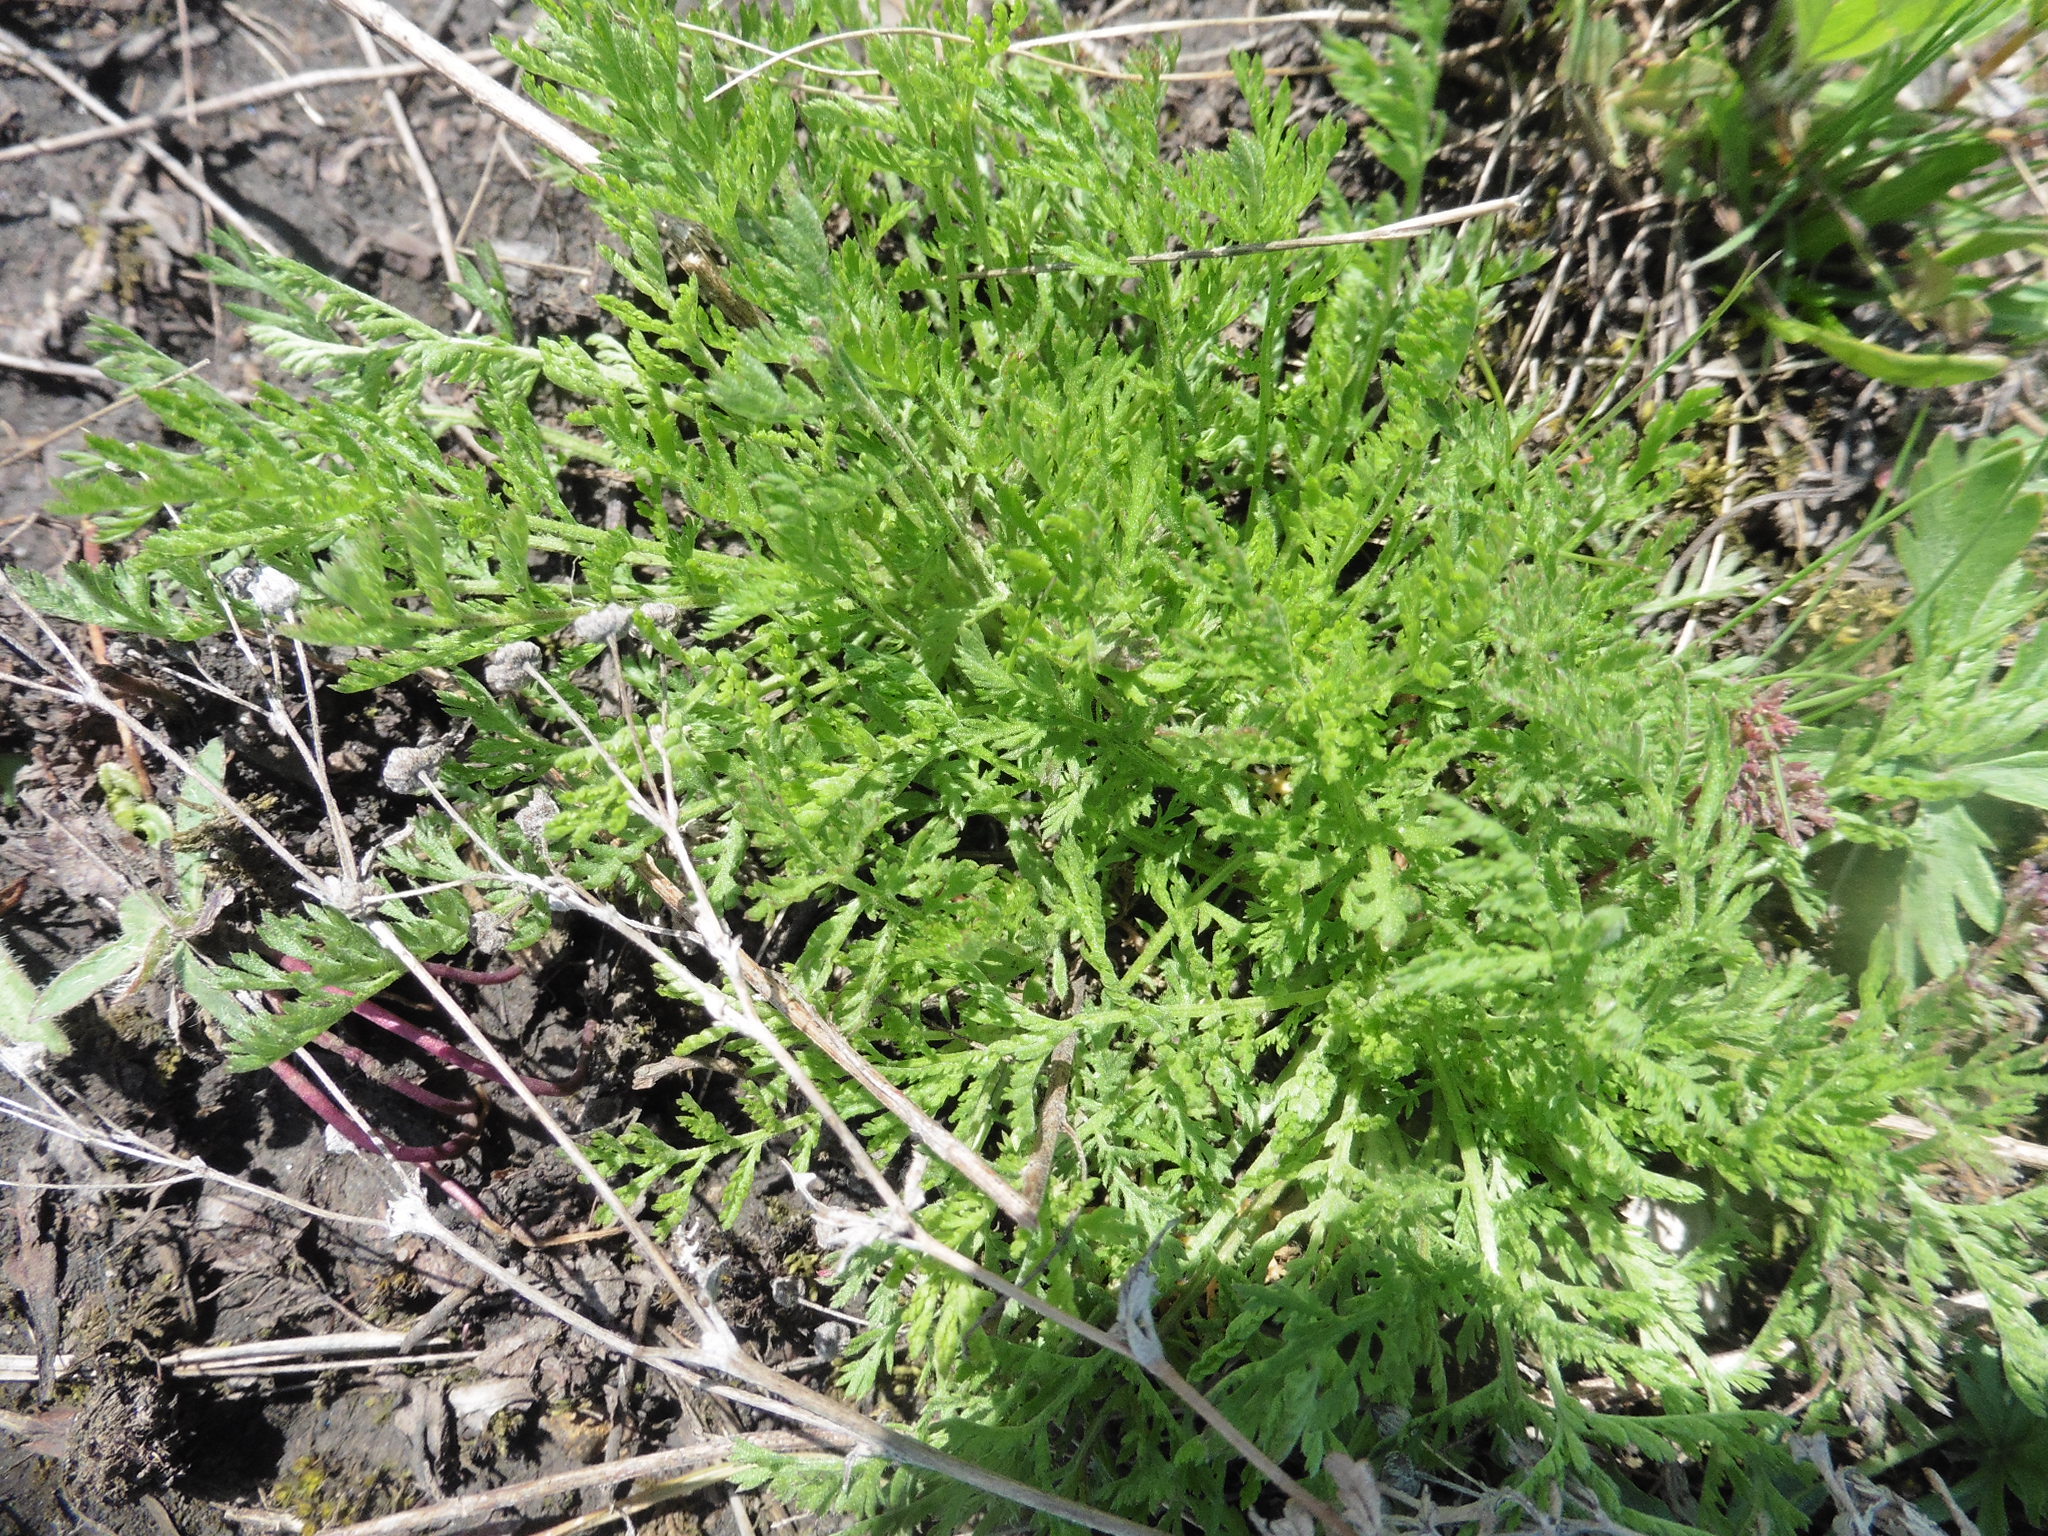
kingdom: Plantae
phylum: Tracheophyta
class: Magnoliopsida
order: Asterales
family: Asteraceae
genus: Achillea
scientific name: Achillea nobilis
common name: Noble yarrow
